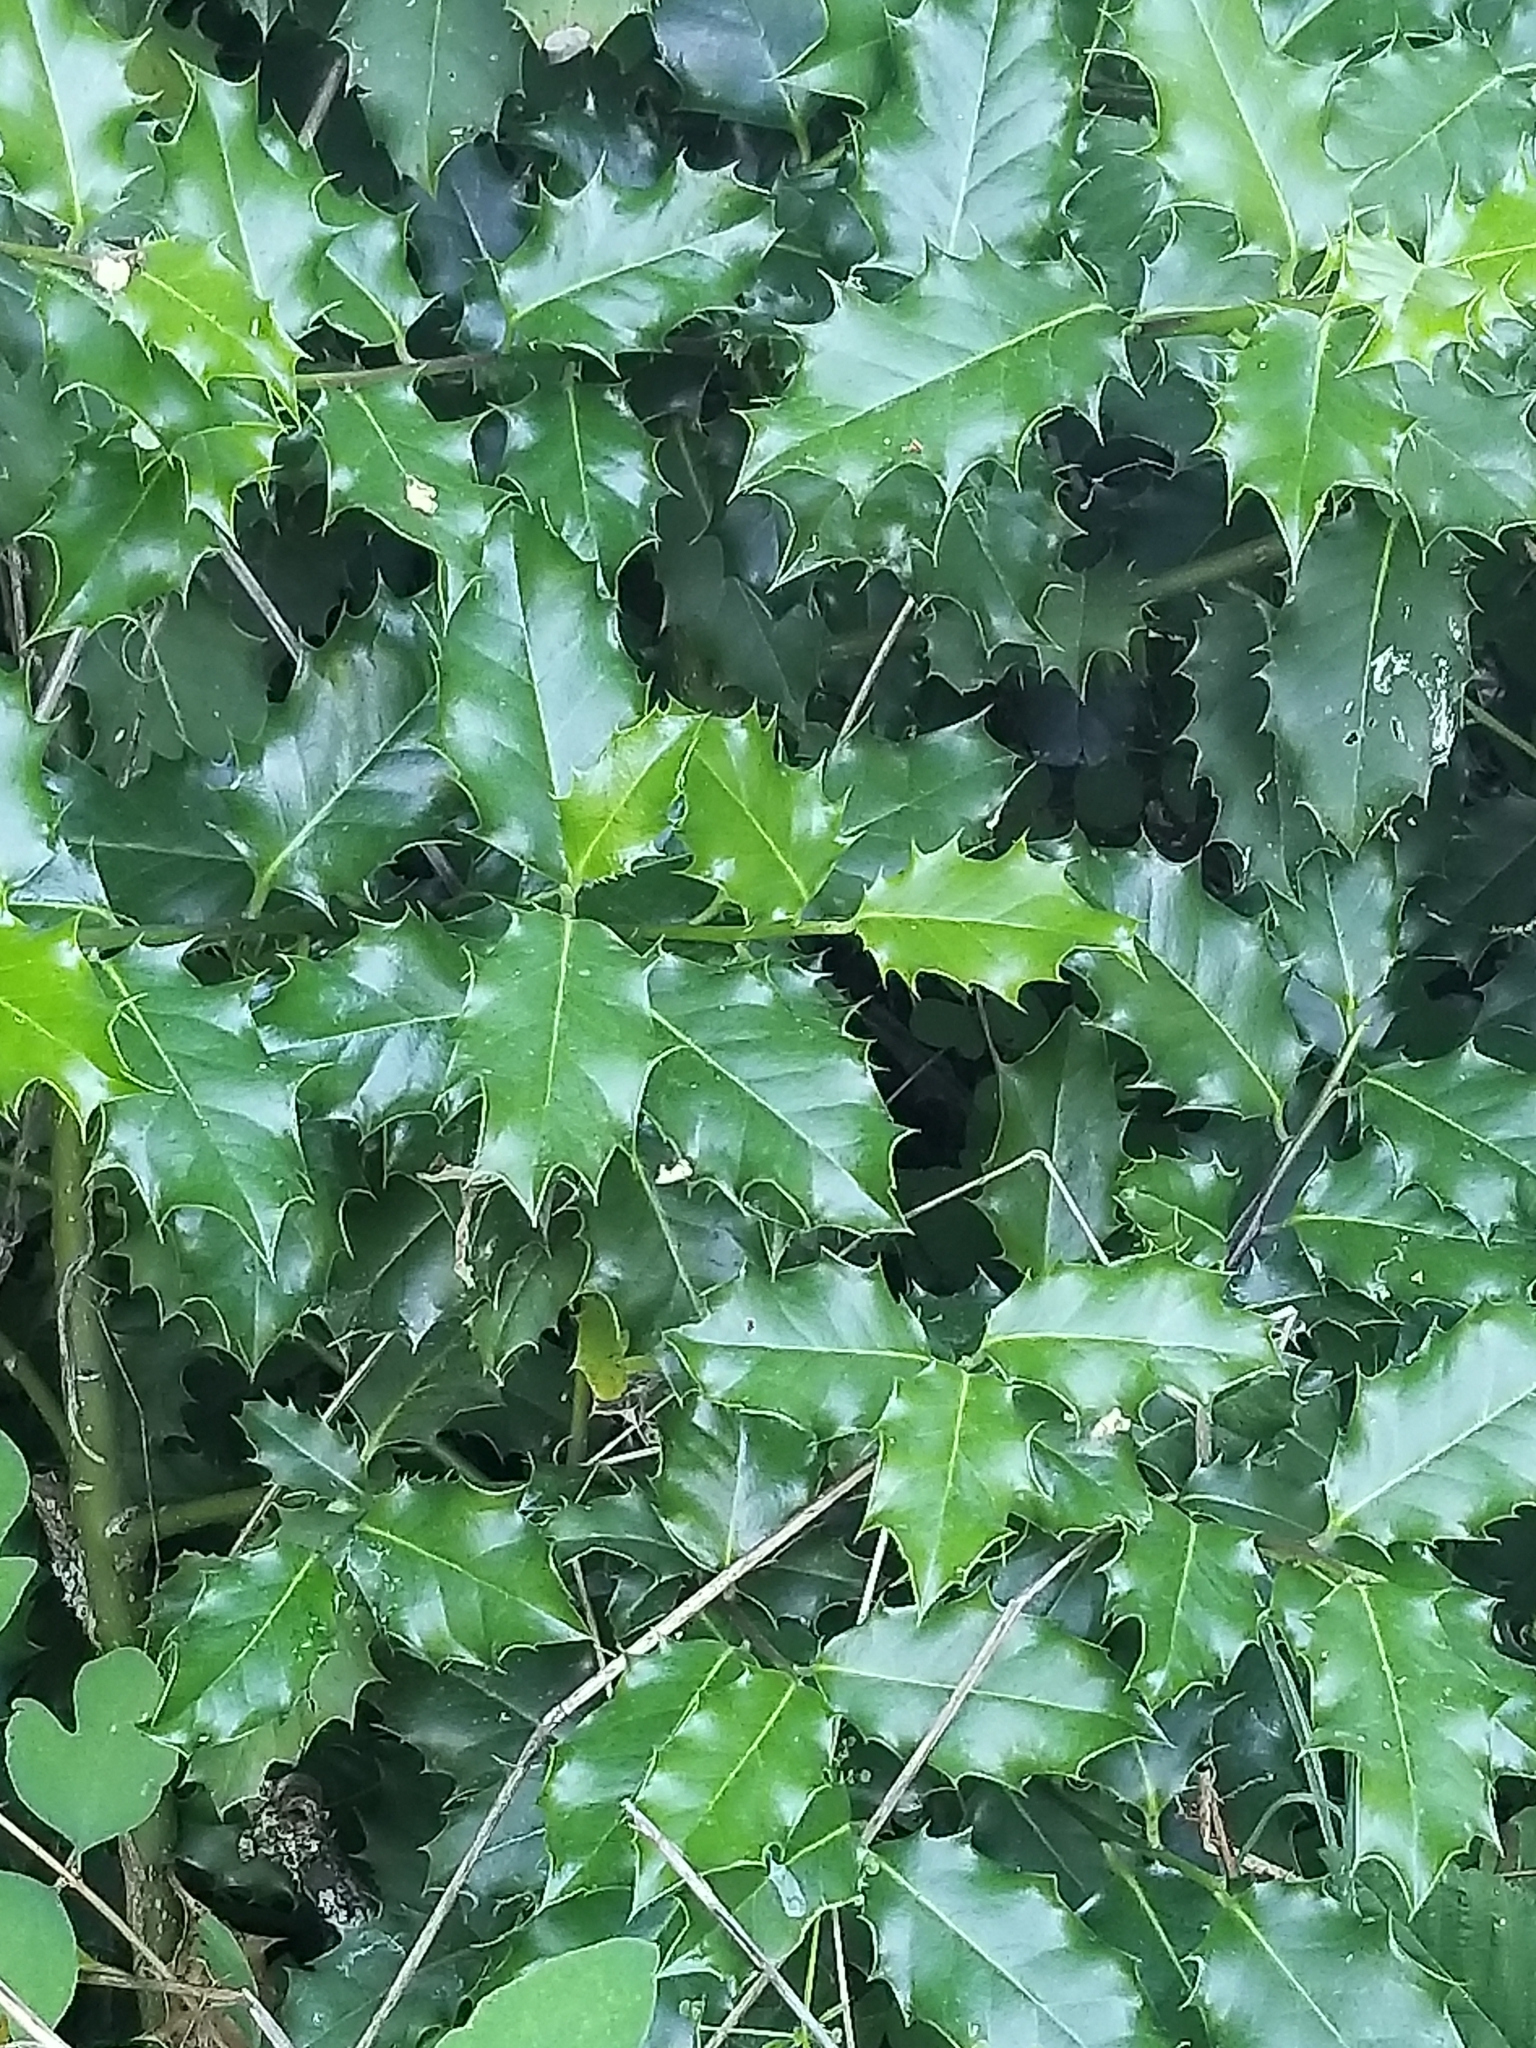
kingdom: Plantae
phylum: Tracheophyta
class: Magnoliopsida
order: Aquifoliales
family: Aquifoliaceae
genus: Ilex
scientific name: Ilex aquifolium
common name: English holly
